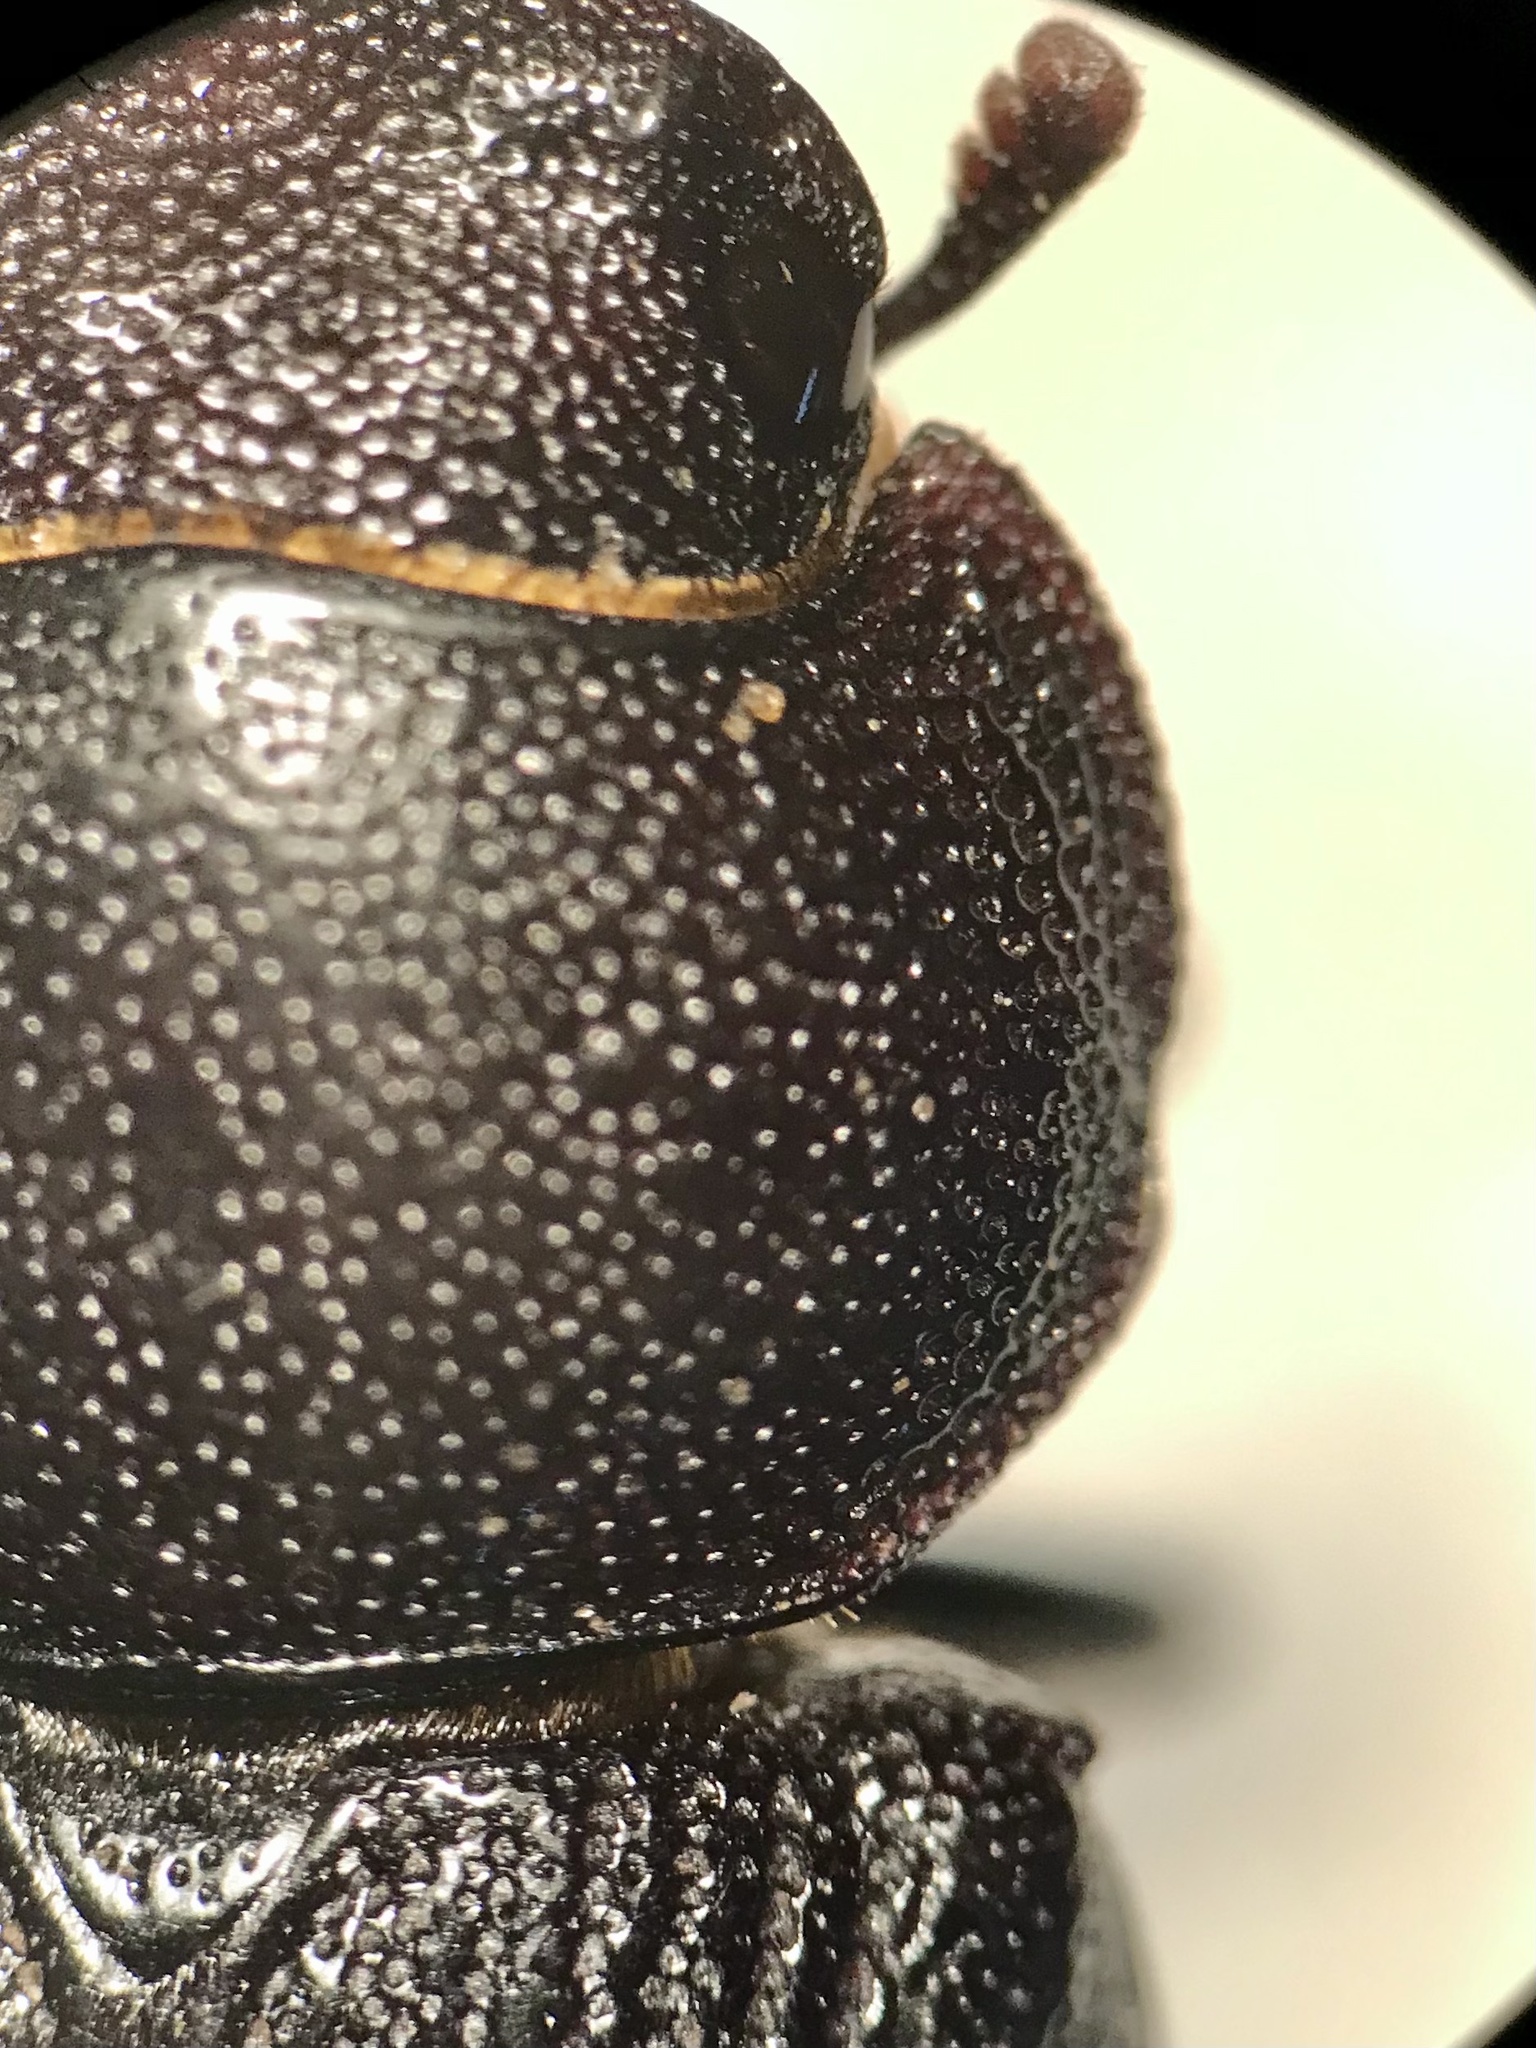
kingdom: Animalia
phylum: Arthropoda
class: Insecta
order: Coleoptera
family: Lucanidae
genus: Dorcus
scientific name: Dorcus parallelus
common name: Antelope beetle
